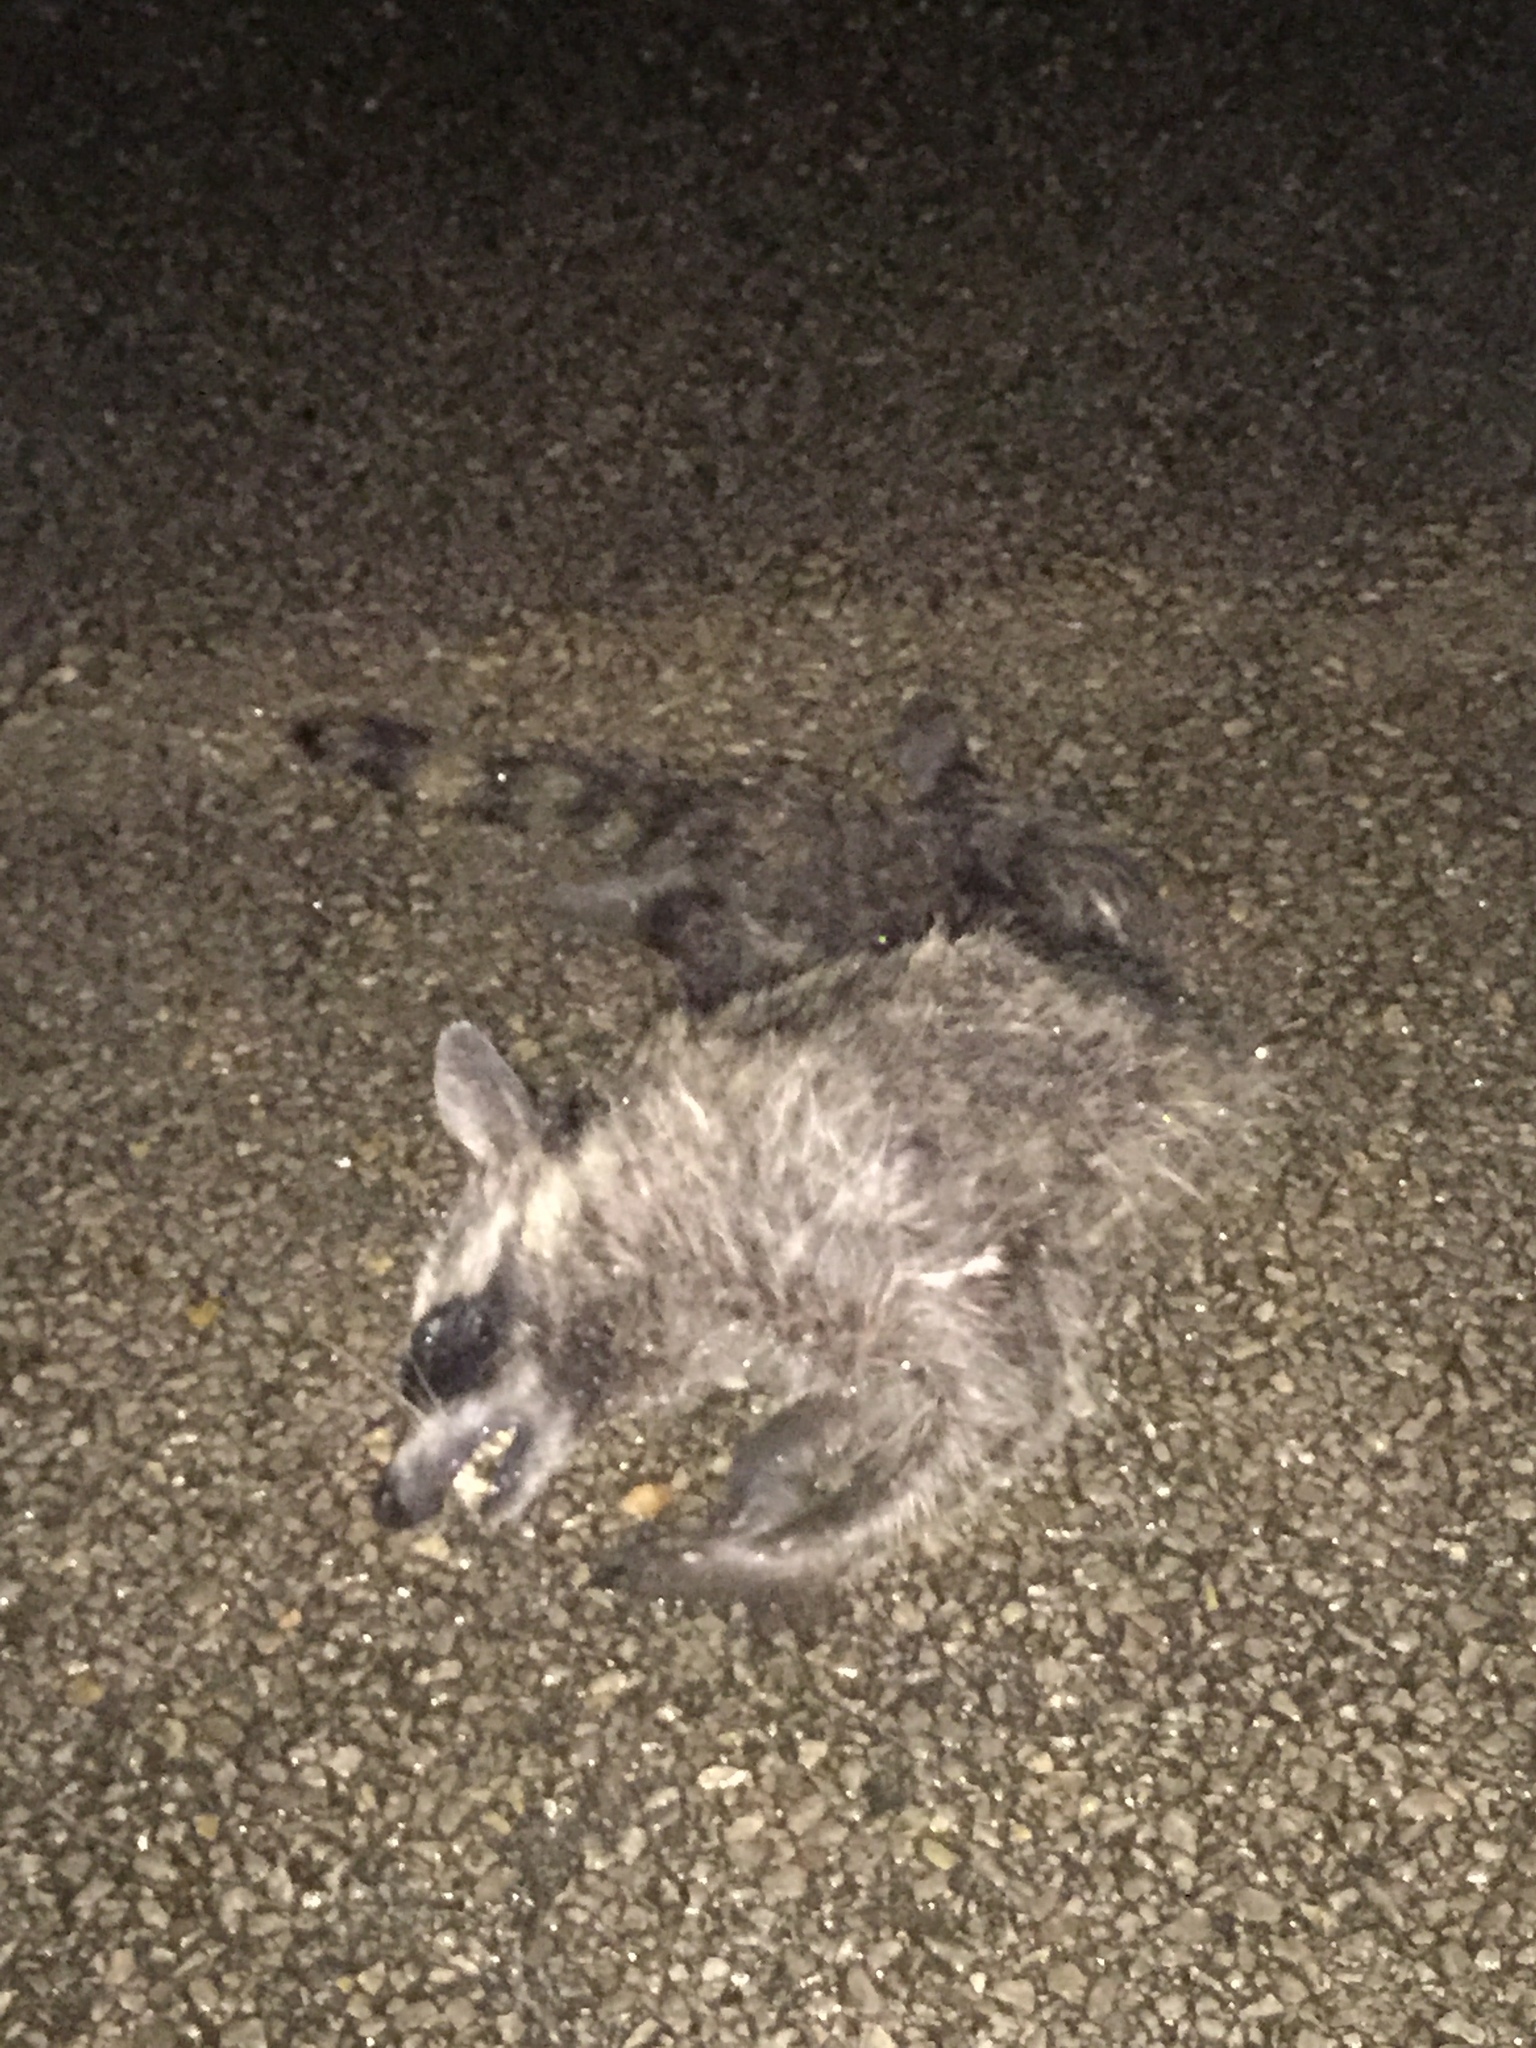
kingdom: Animalia
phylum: Chordata
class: Mammalia
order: Carnivora
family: Procyonidae
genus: Procyon
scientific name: Procyon lotor
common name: Raccoon
